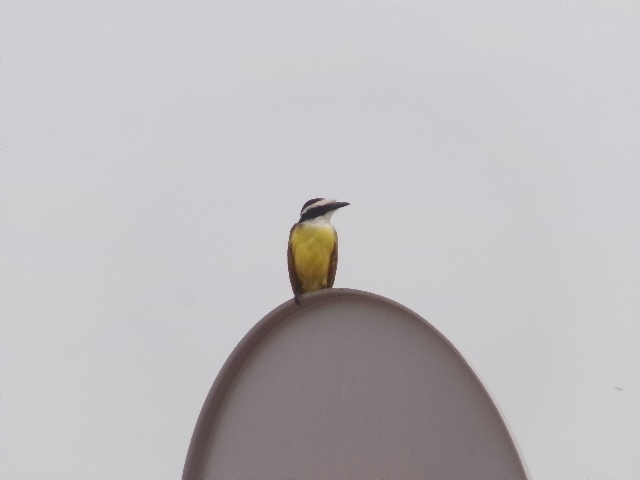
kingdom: Animalia
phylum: Chordata
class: Aves
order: Passeriformes
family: Tyrannidae
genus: Pitangus
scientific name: Pitangus sulphuratus
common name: Great kiskadee
